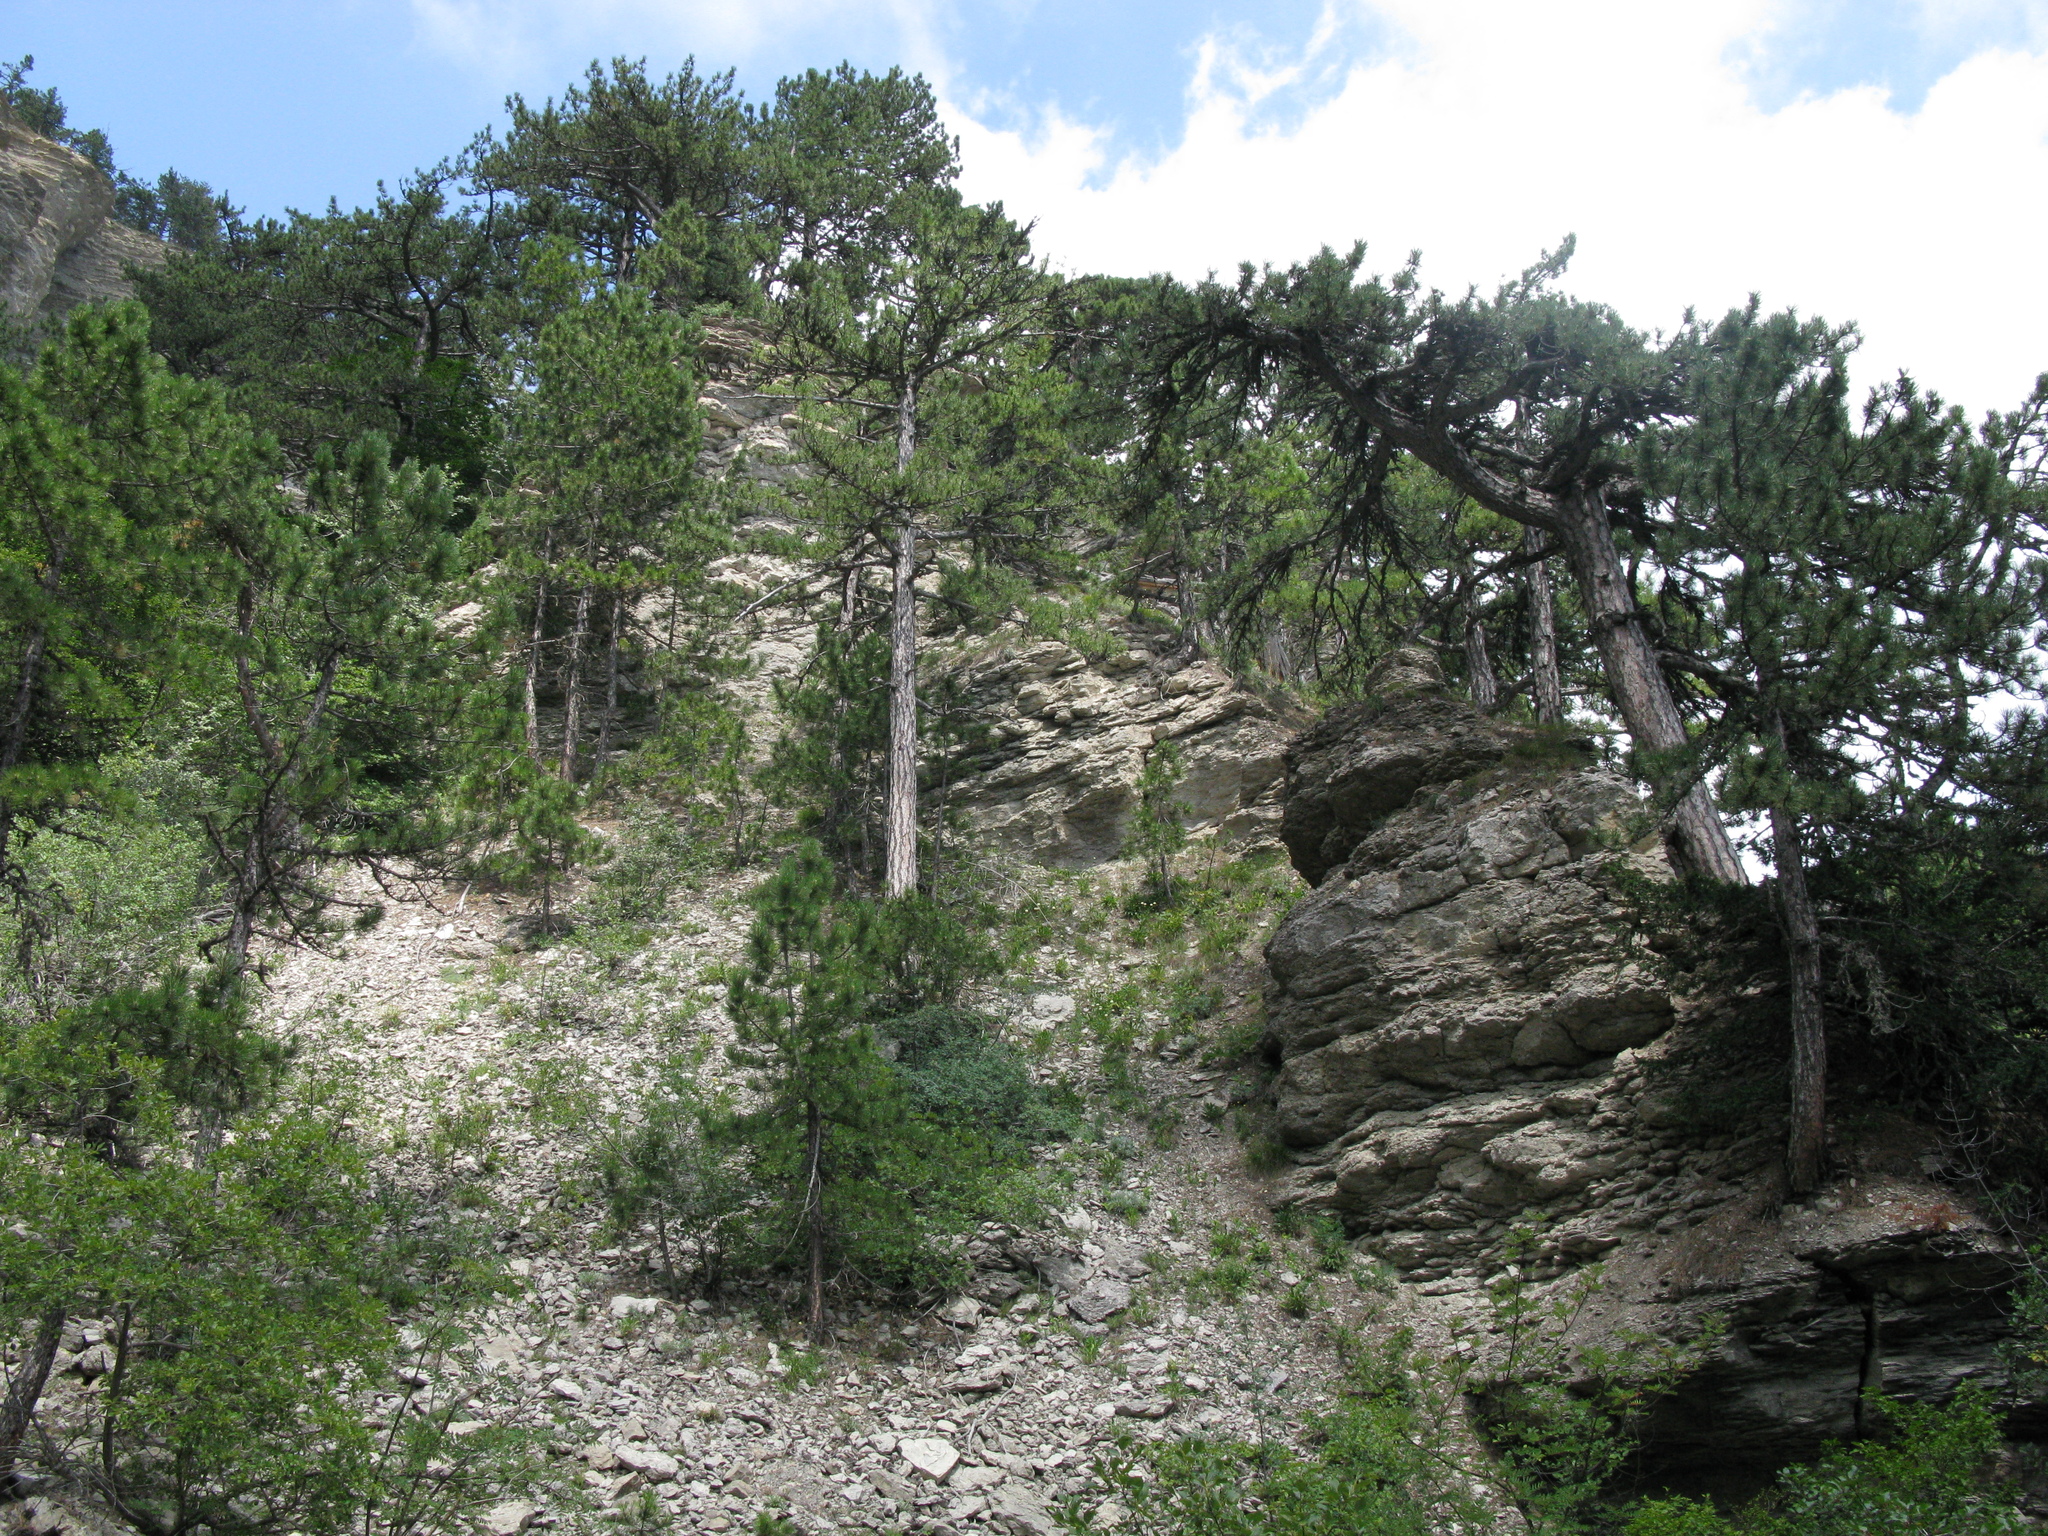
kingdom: Plantae
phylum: Tracheophyta
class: Pinopsida
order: Pinales
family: Pinaceae
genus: Pinus
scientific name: Pinus nigra
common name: Austrian pine
